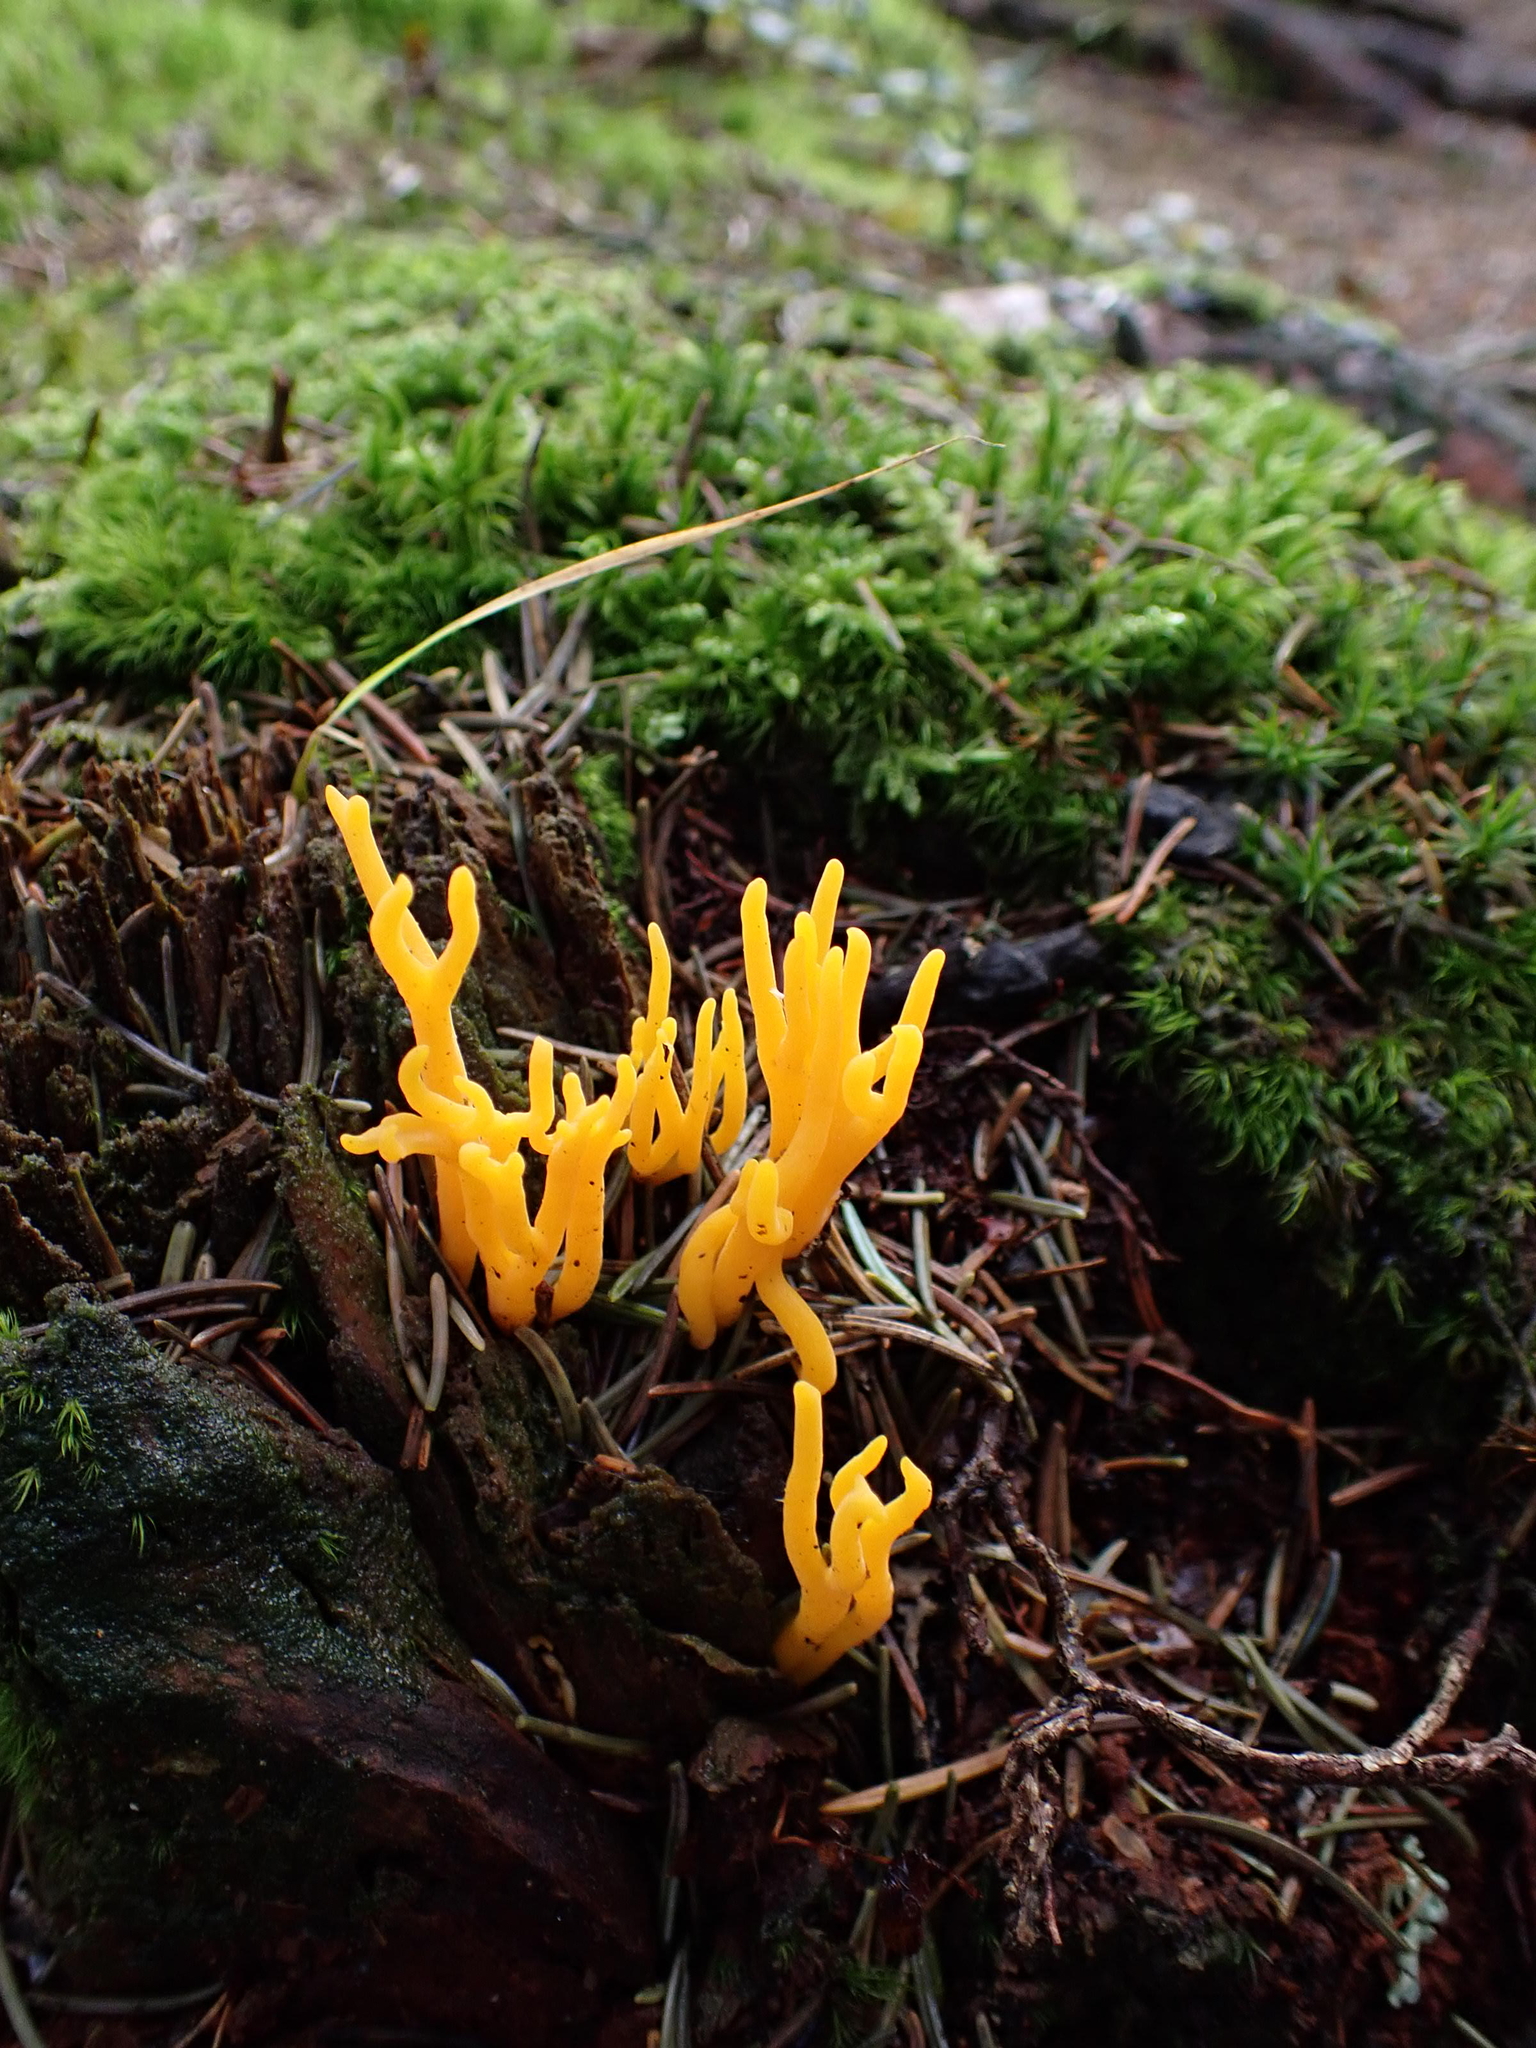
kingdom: Fungi
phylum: Basidiomycota
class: Dacrymycetes
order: Dacrymycetales
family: Dacrymycetaceae
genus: Calocera
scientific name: Calocera viscosa
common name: Yellow stagshorn
